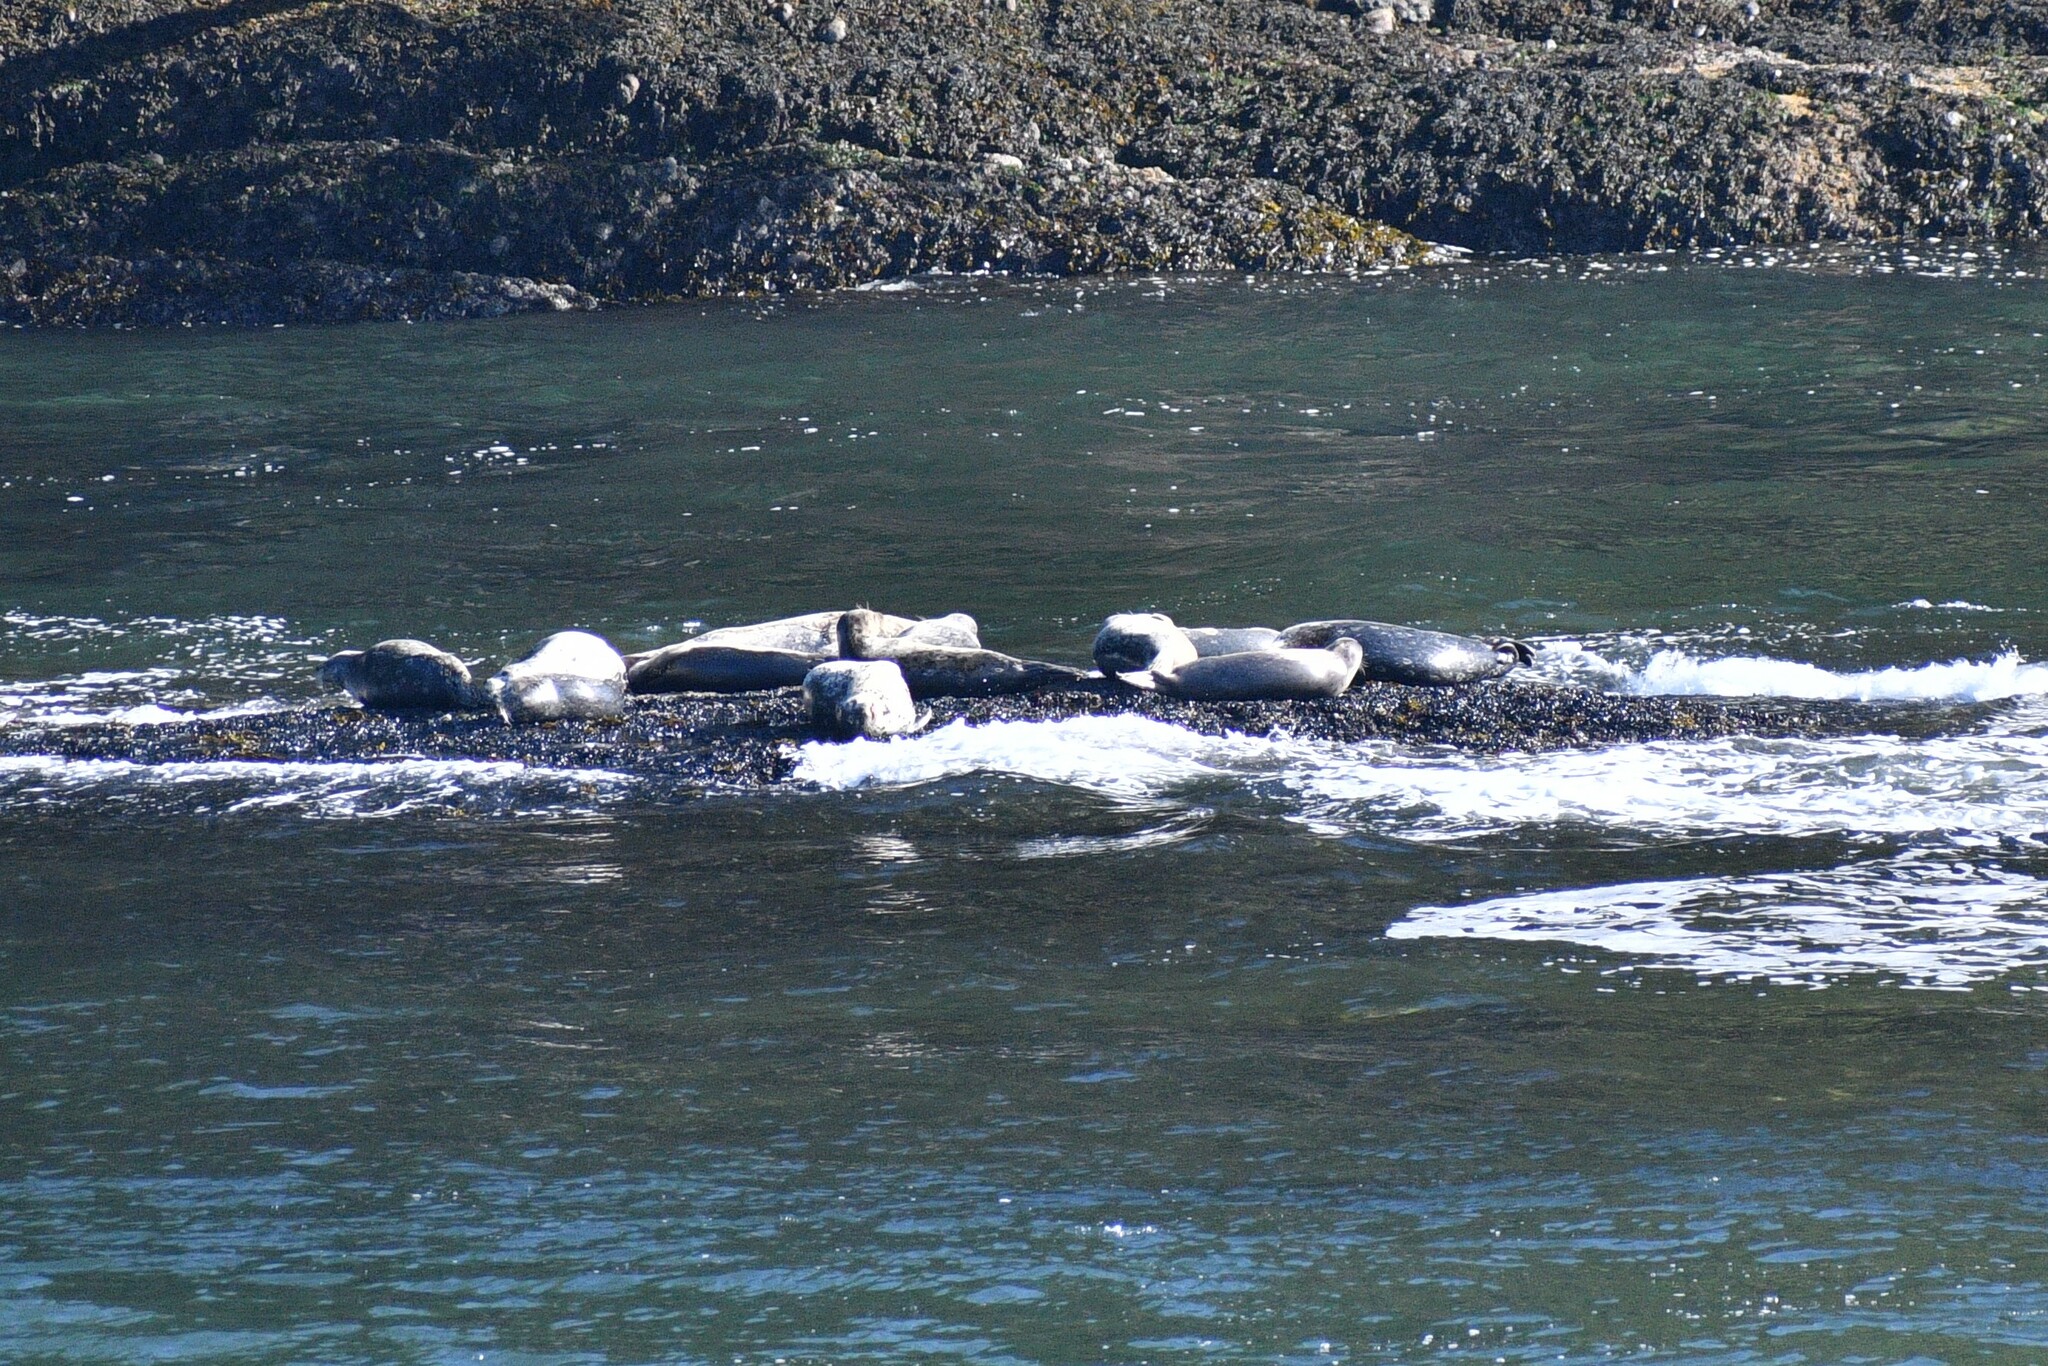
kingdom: Animalia
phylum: Chordata
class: Mammalia
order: Carnivora
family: Phocidae
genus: Phoca
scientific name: Phoca vitulina
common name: Harbor seal
